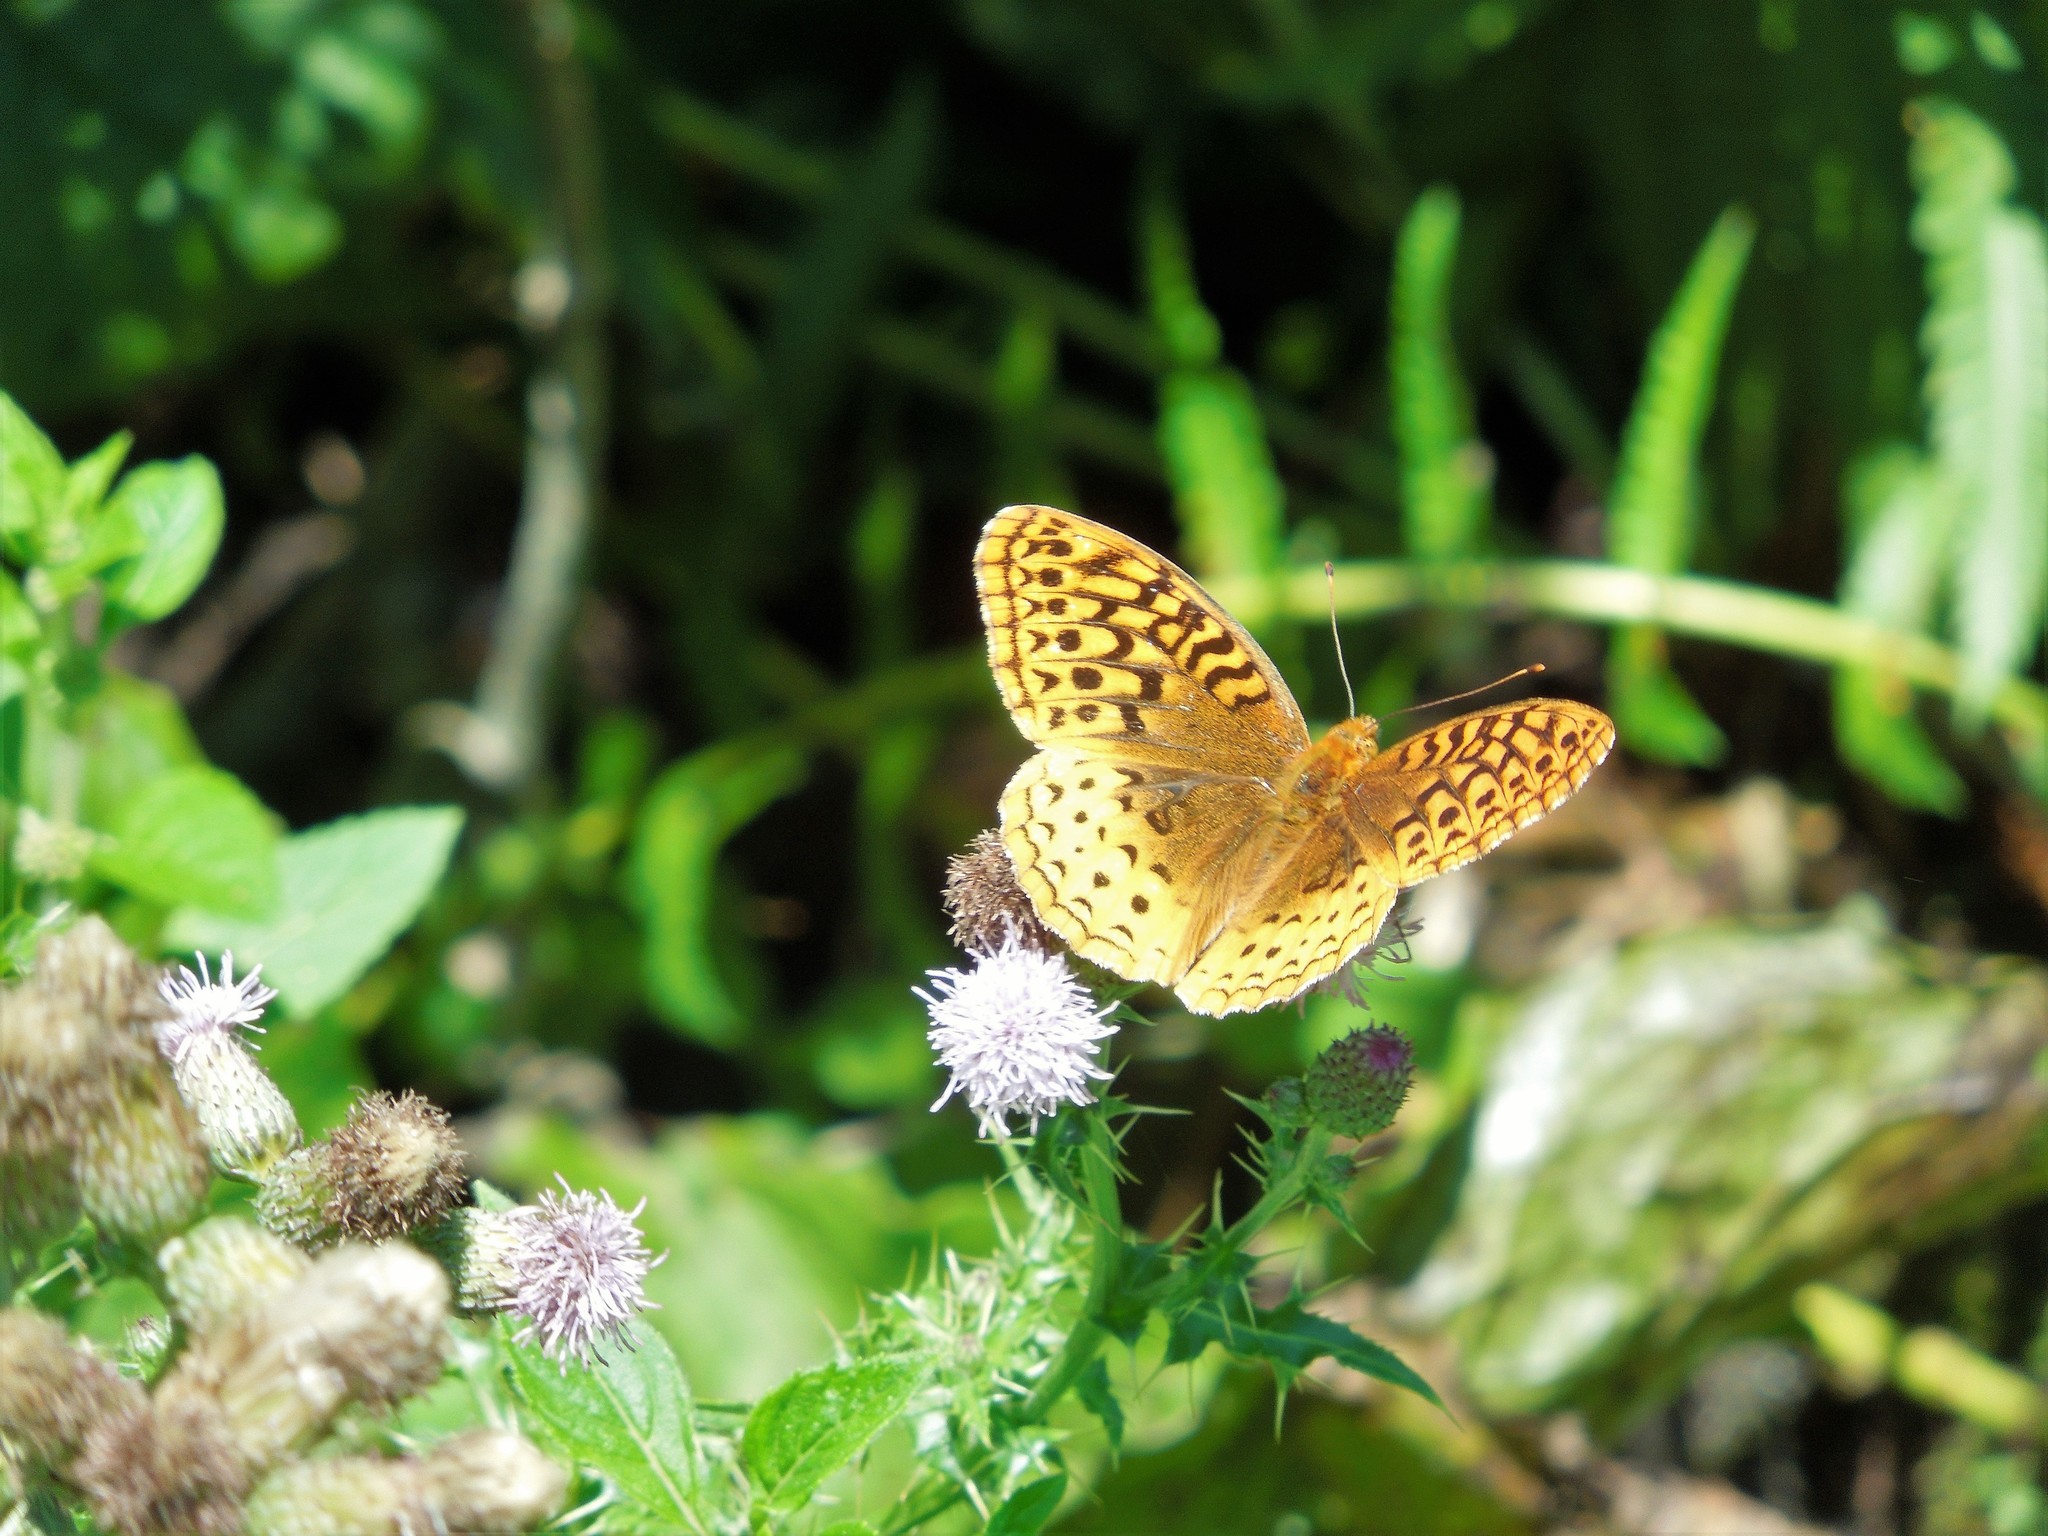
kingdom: Animalia
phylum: Arthropoda
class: Insecta
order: Lepidoptera
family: Nymphalidae
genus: Speyeria
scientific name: Speyeria cybele
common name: Great spangled fritillary
